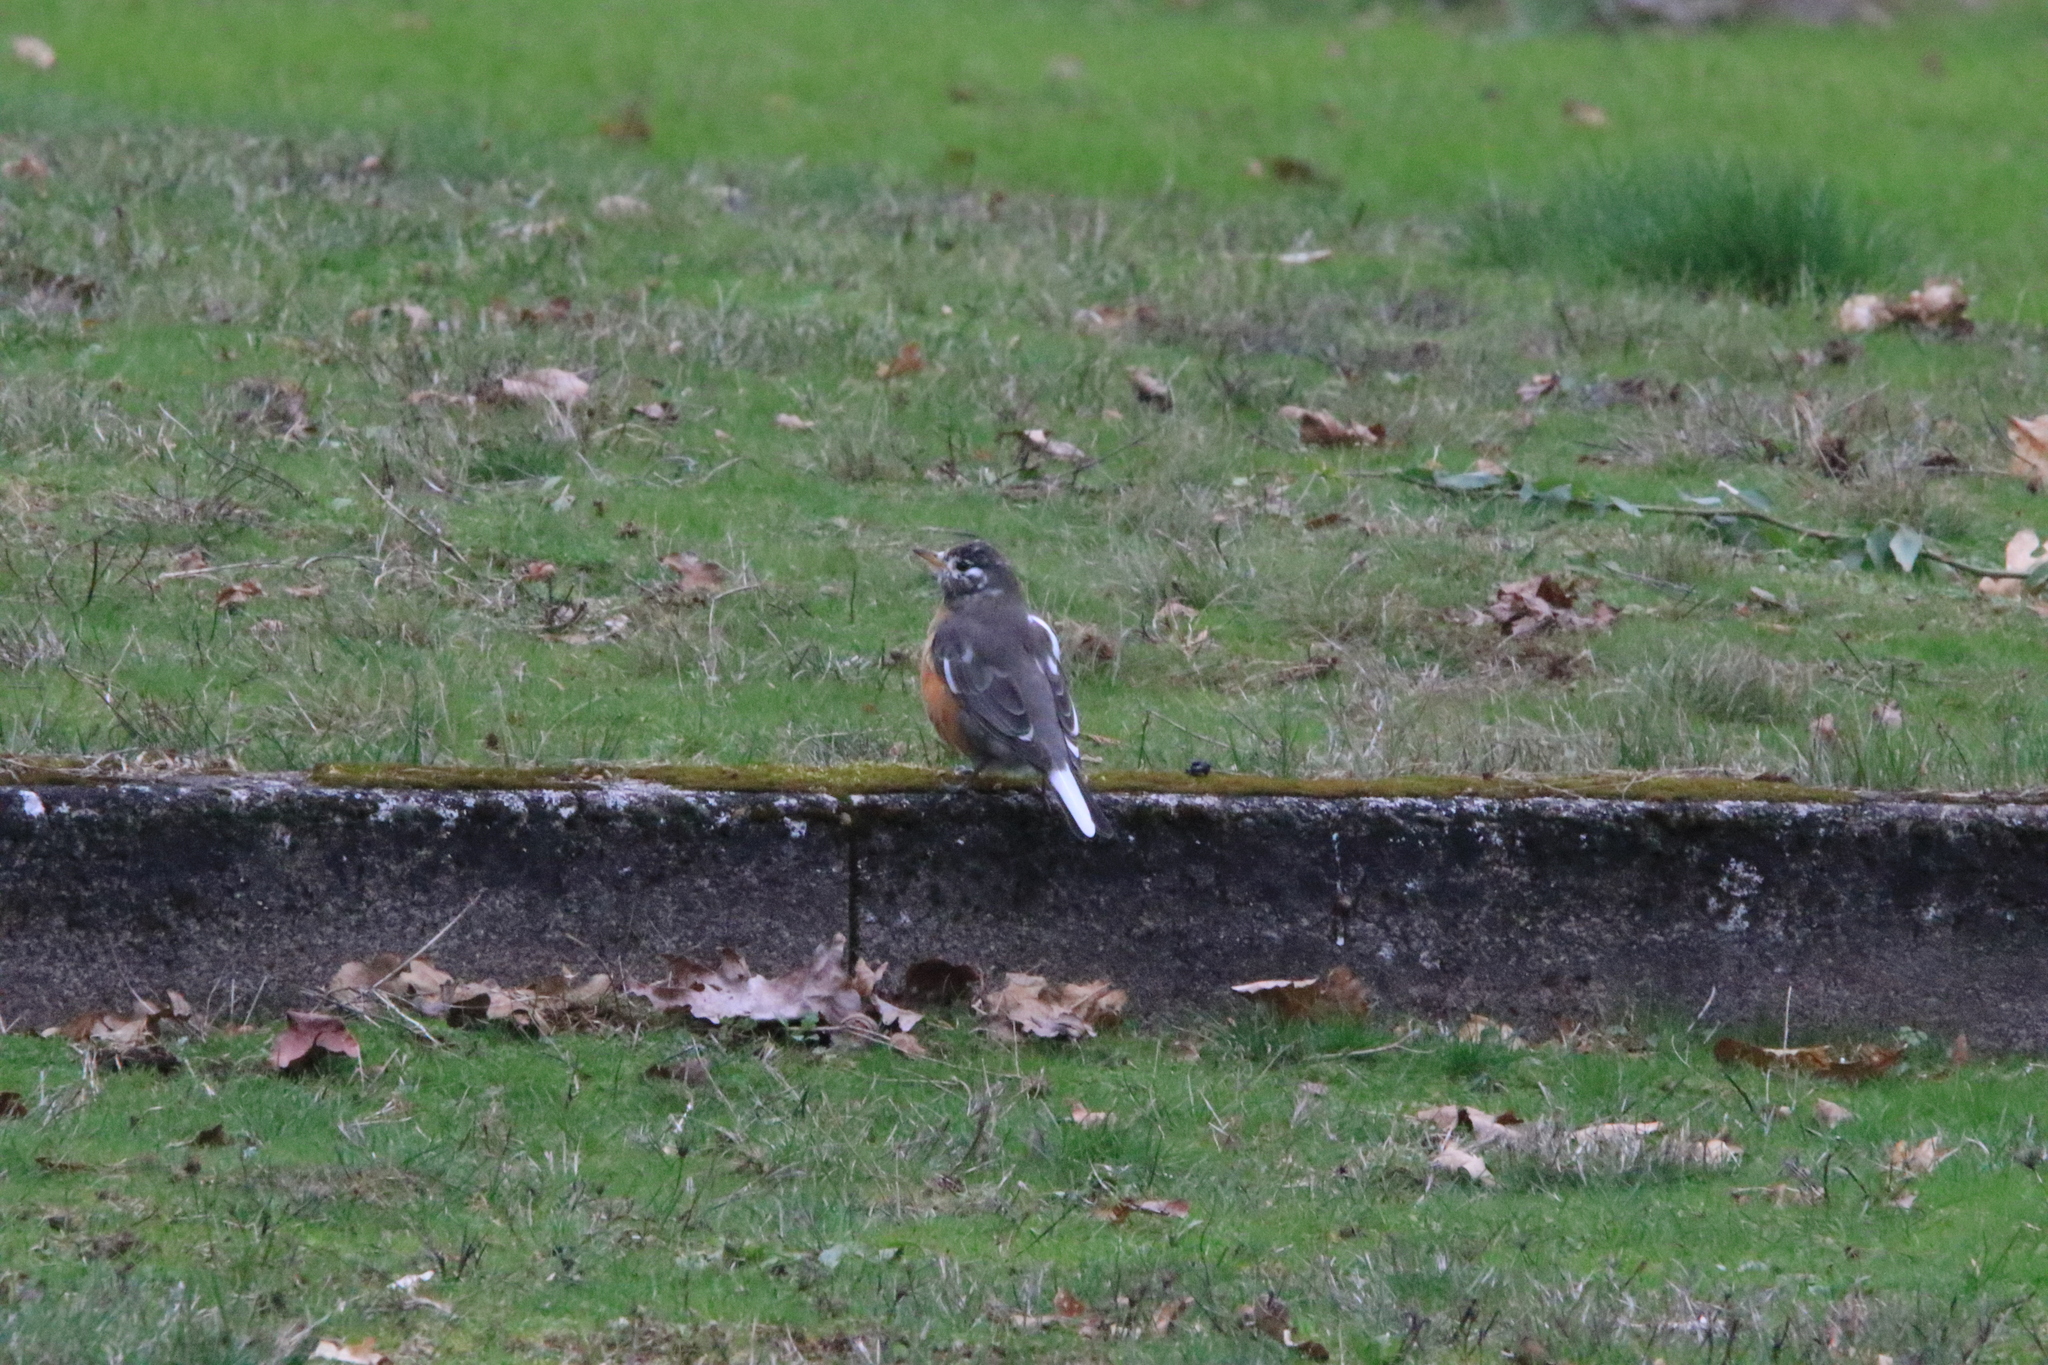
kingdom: Animalia
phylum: Chordata
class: Aves
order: Passeriformes
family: Turdidae
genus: Turdus
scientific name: Turdus migratorius
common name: American robin
